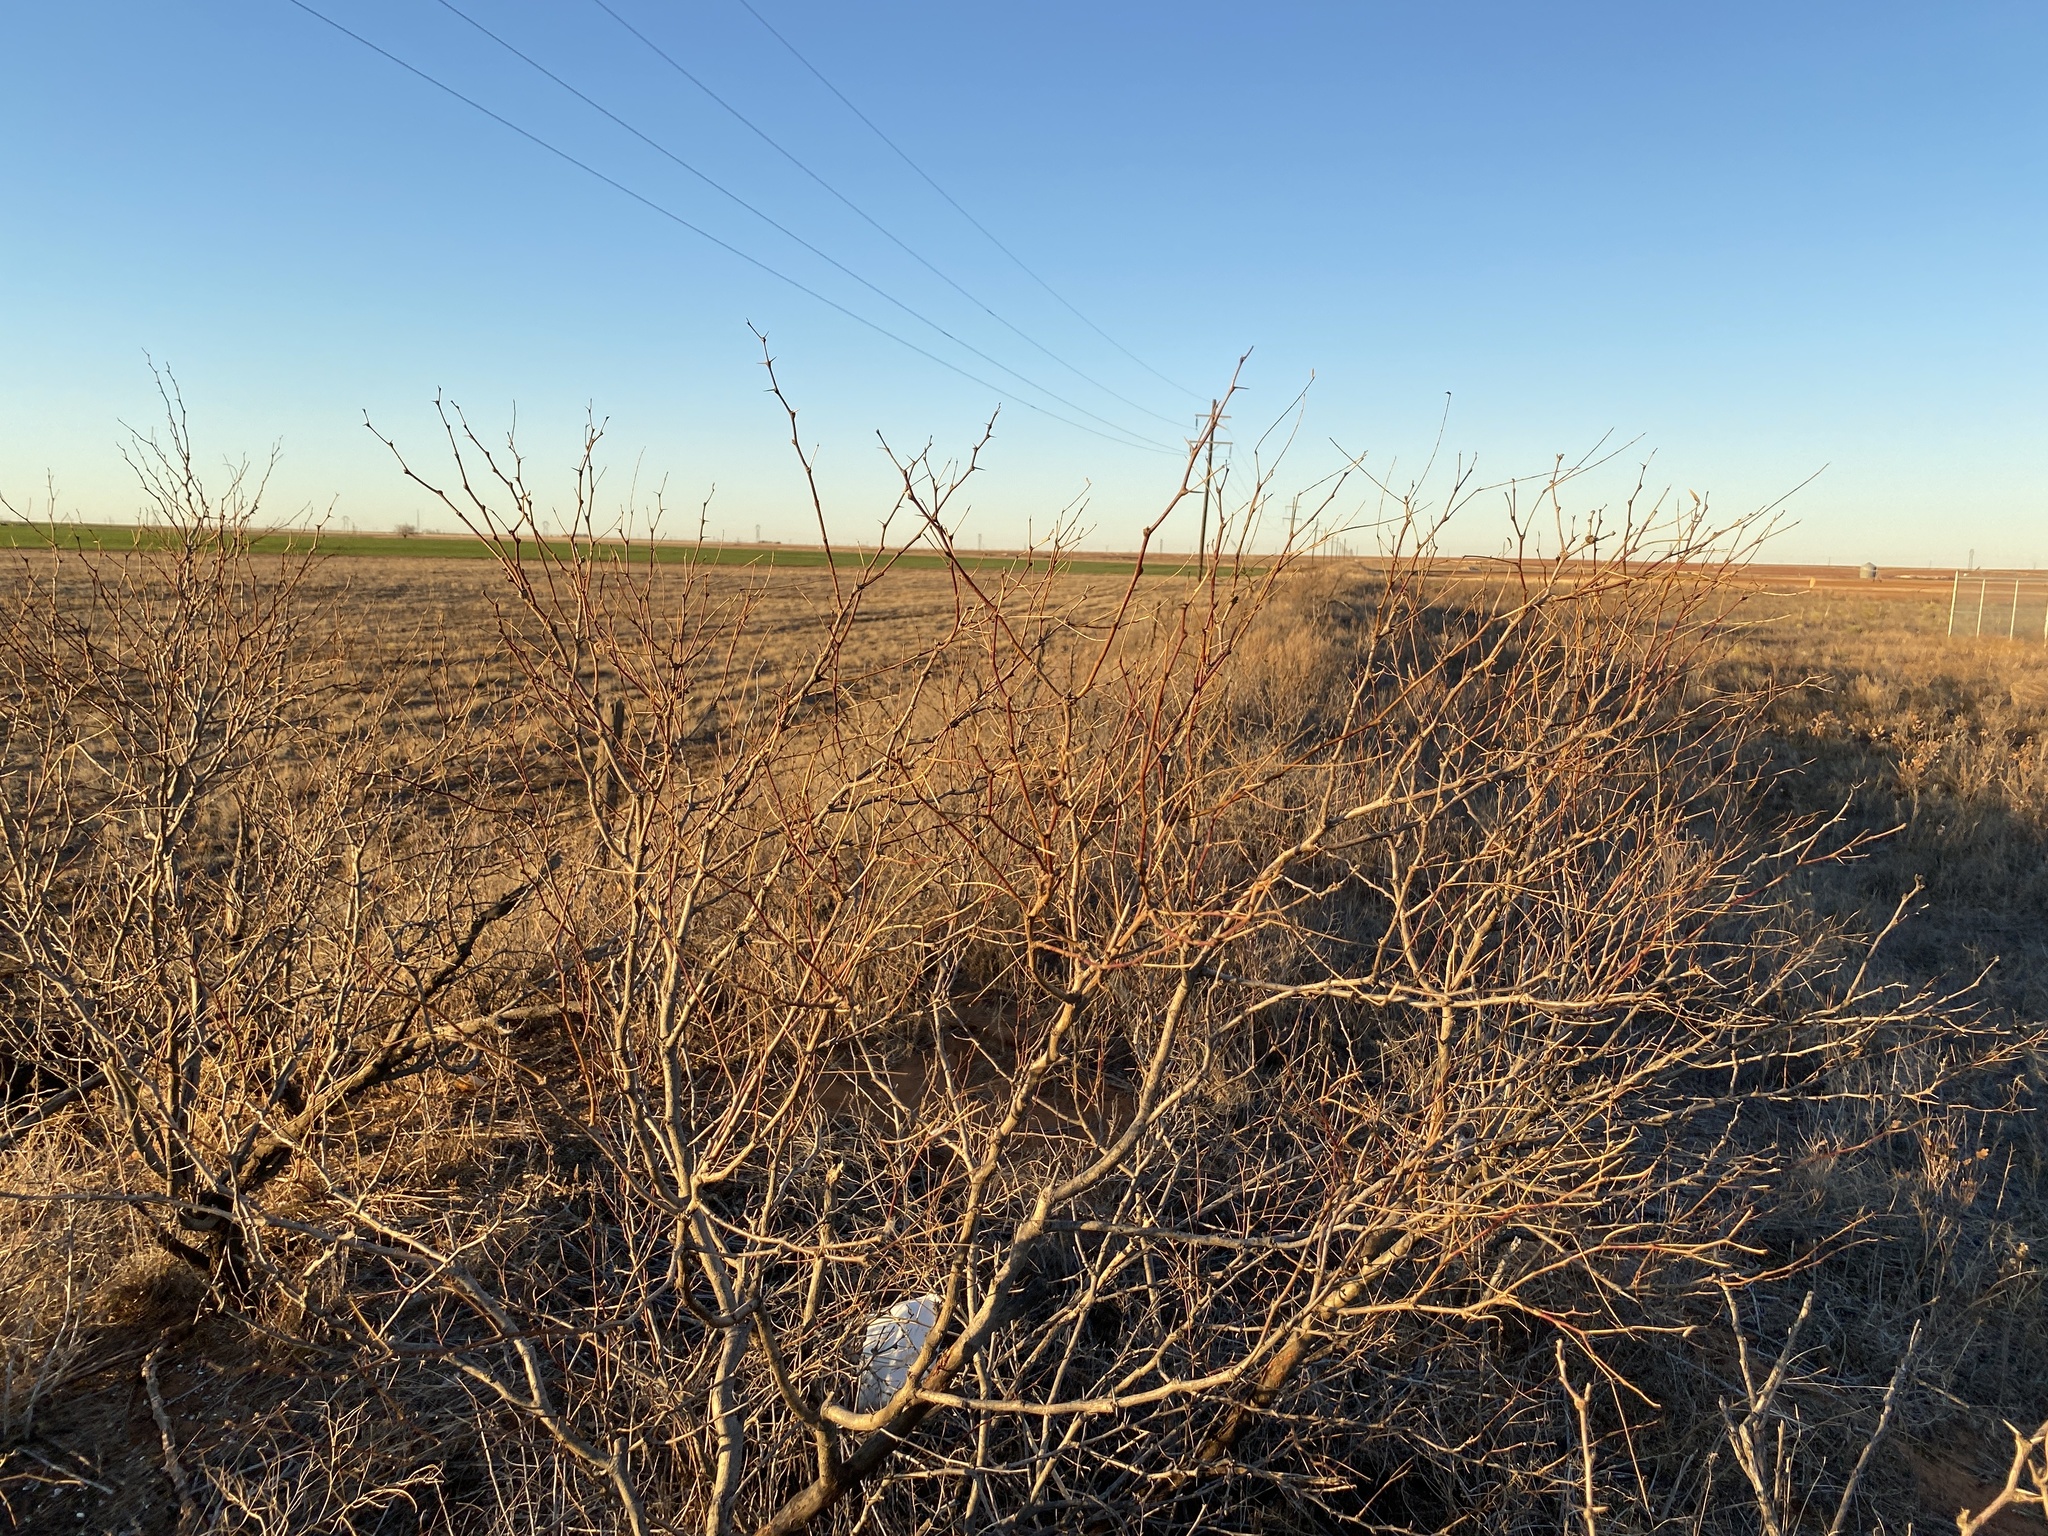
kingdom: Plantae
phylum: Tracheophyta
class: Magnoliopsida
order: Fabales
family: Fabaceae
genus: Prosopis
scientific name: Prosopis glandulosa
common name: Honey mesquite
